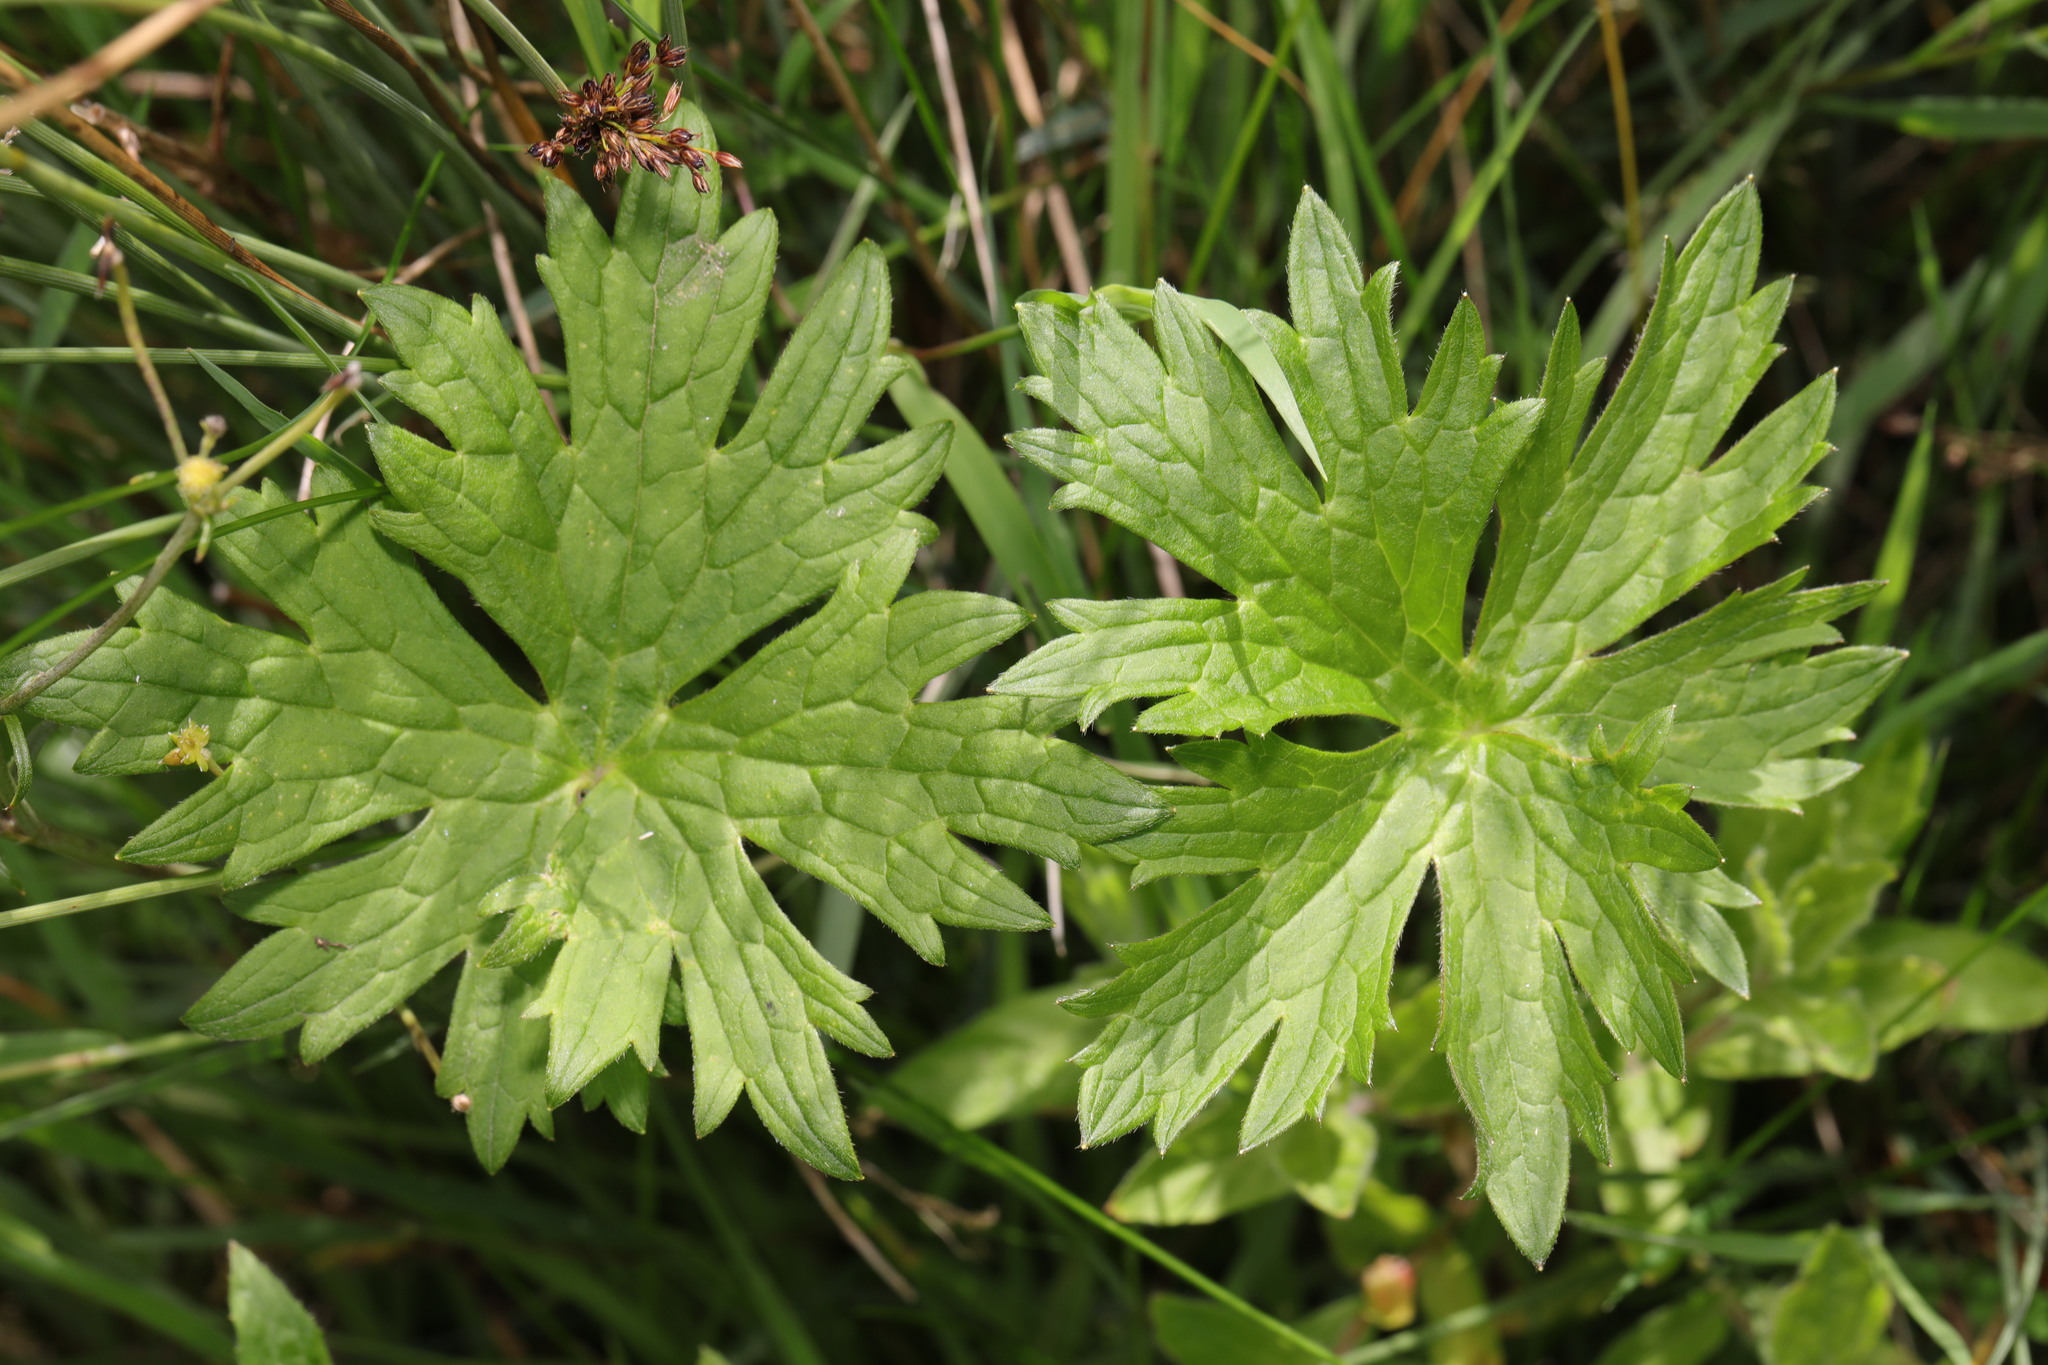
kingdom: Plantae
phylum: Tracheophyta
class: Magnoliopsida
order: Ranunculales
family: Ranunculaceae
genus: Ranunculus
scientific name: Ranunculus acris
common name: Meadow buttercup
